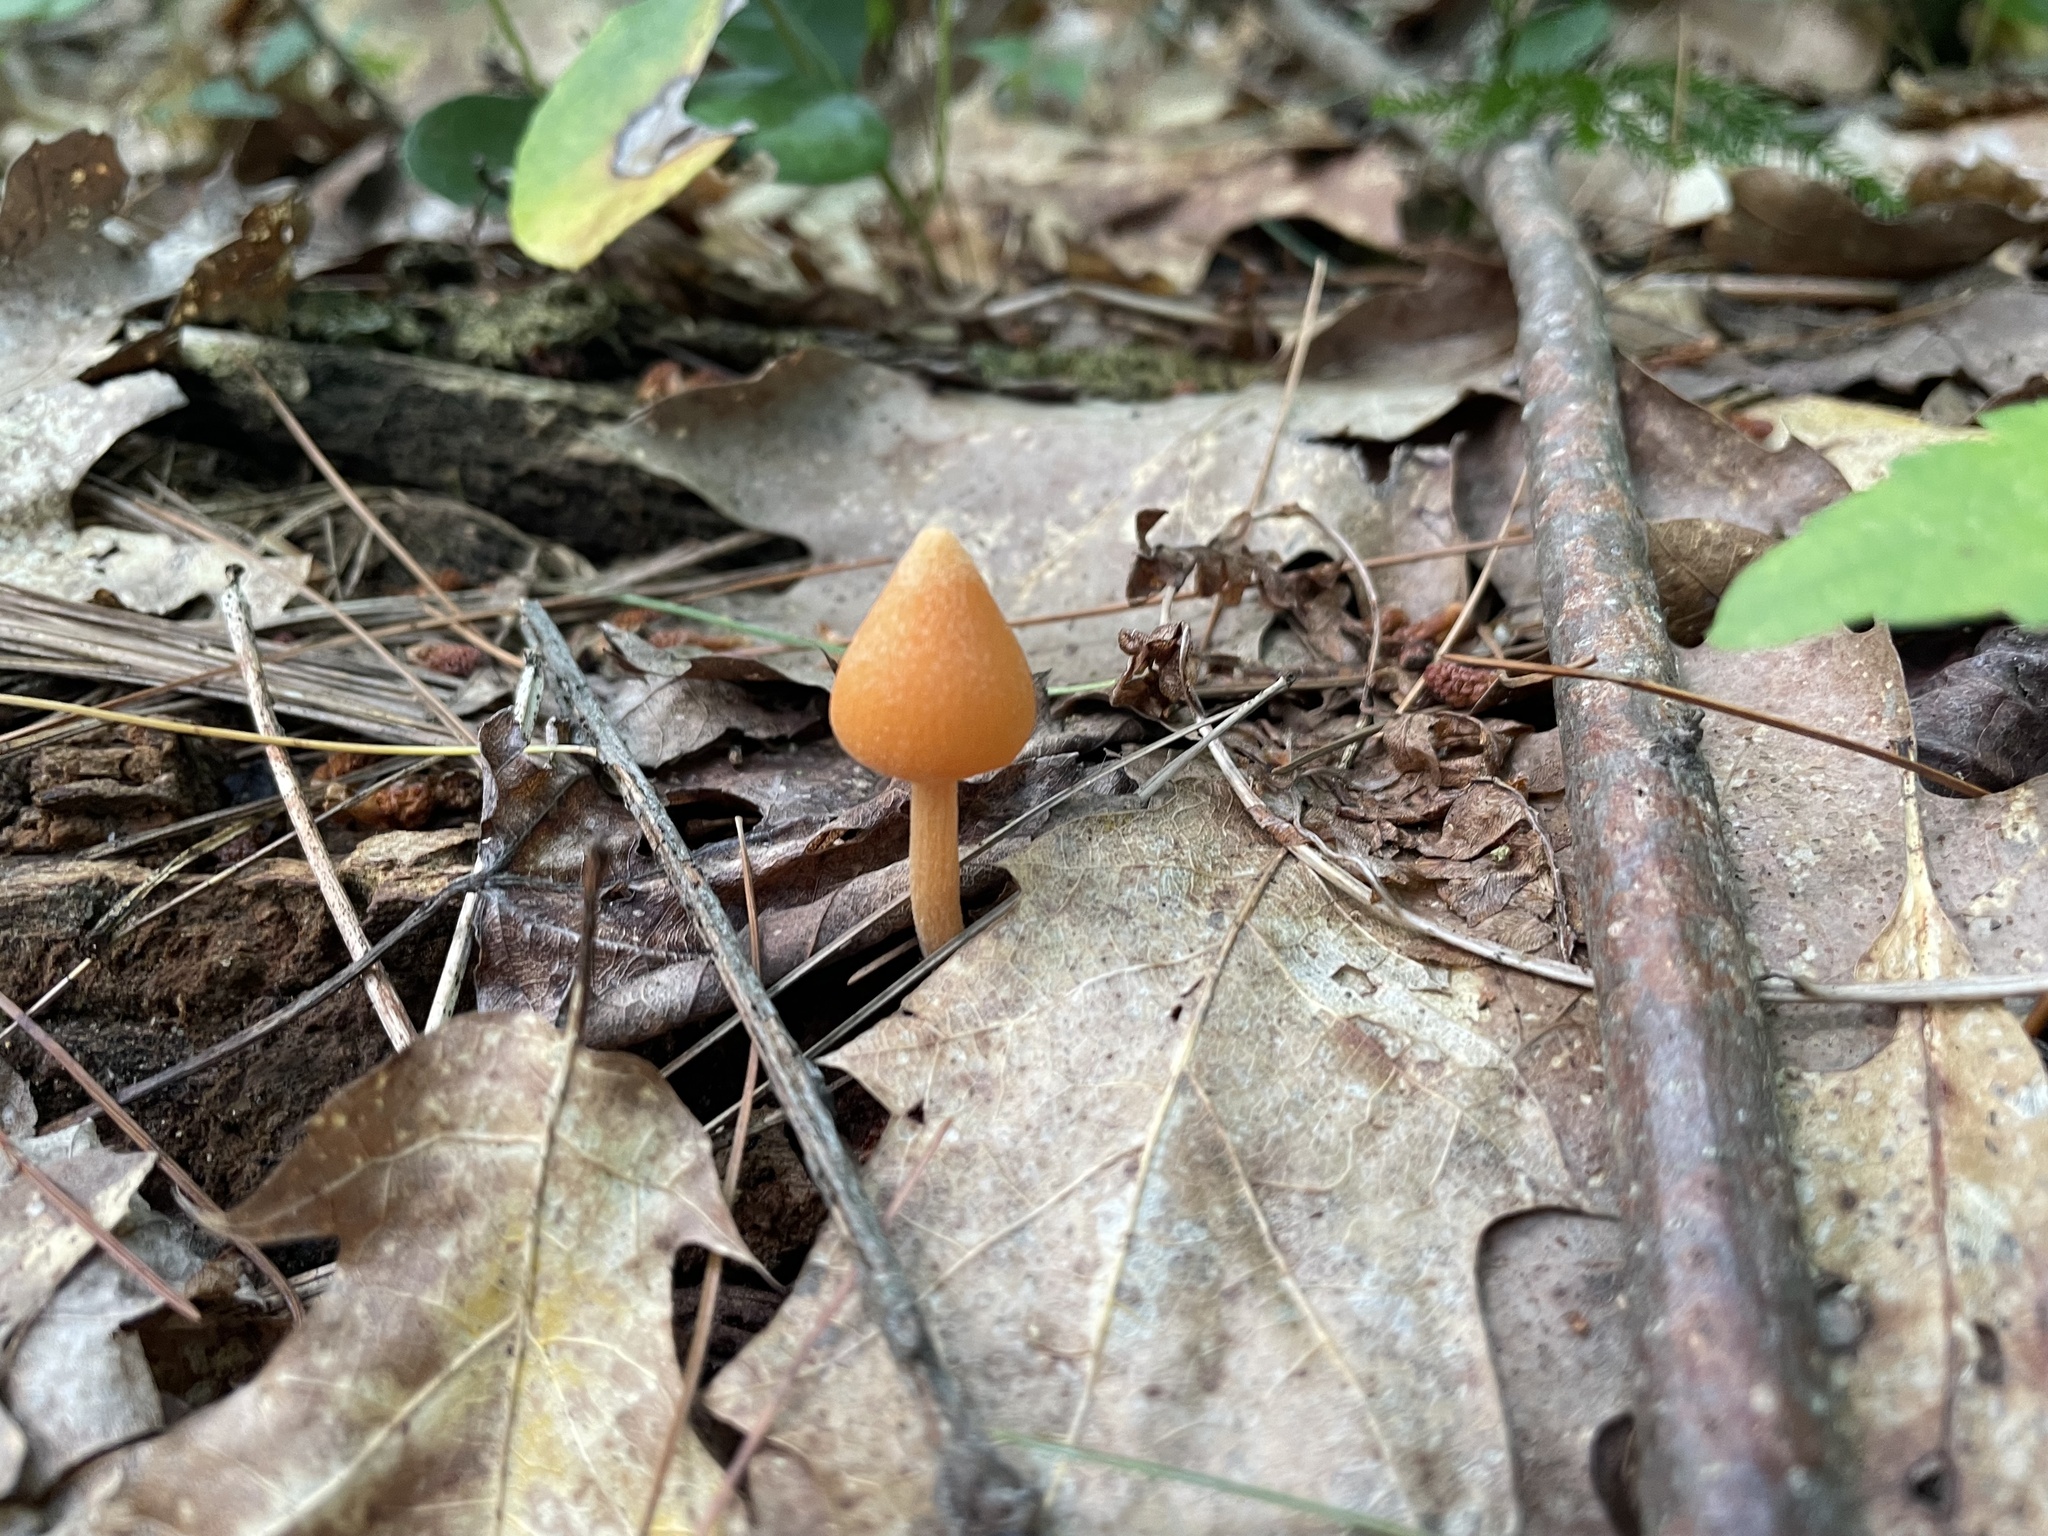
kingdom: Fungi
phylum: Basidiomycota
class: Agaricomycetes
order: Agaricales
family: Entolomataceae
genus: Entoloma
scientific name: Entoloma quadratum
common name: Salmon pinkgill
